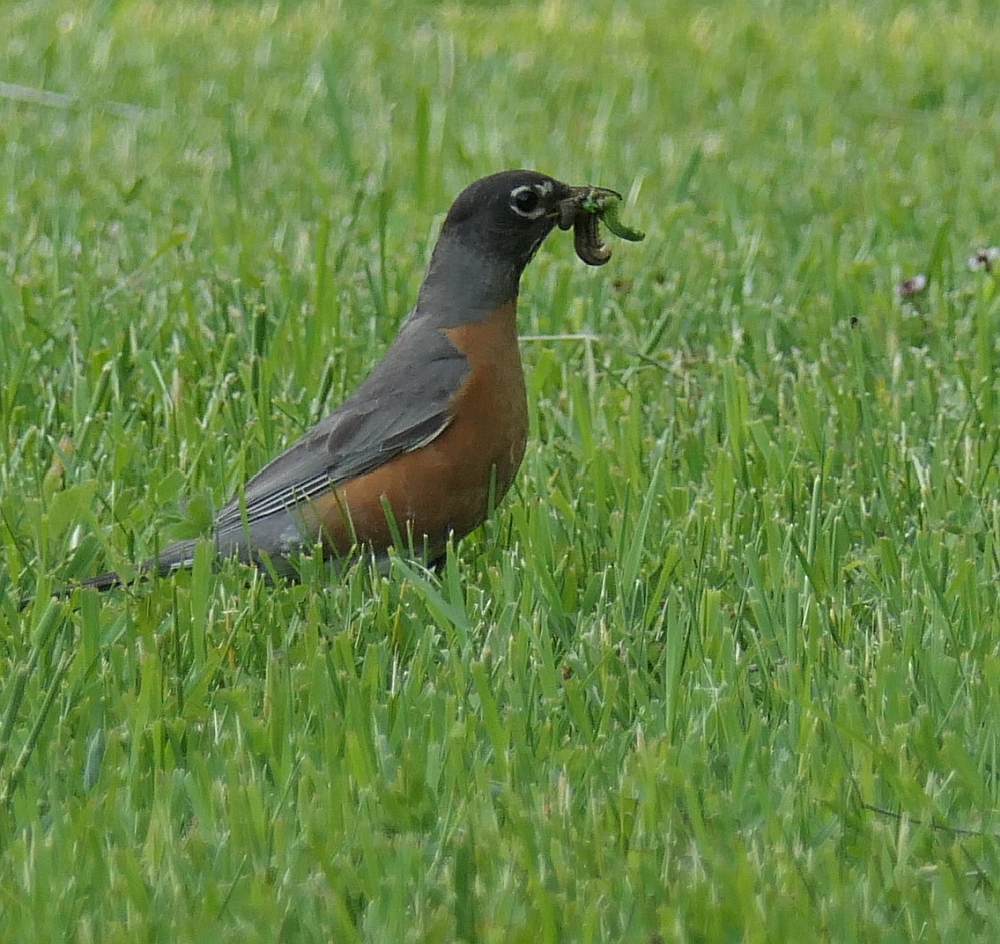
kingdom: Animalia
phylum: Chordata
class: Aves
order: Passeriformes
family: Turdidae
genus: Turdus
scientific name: Turdus migratorius
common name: American robin
